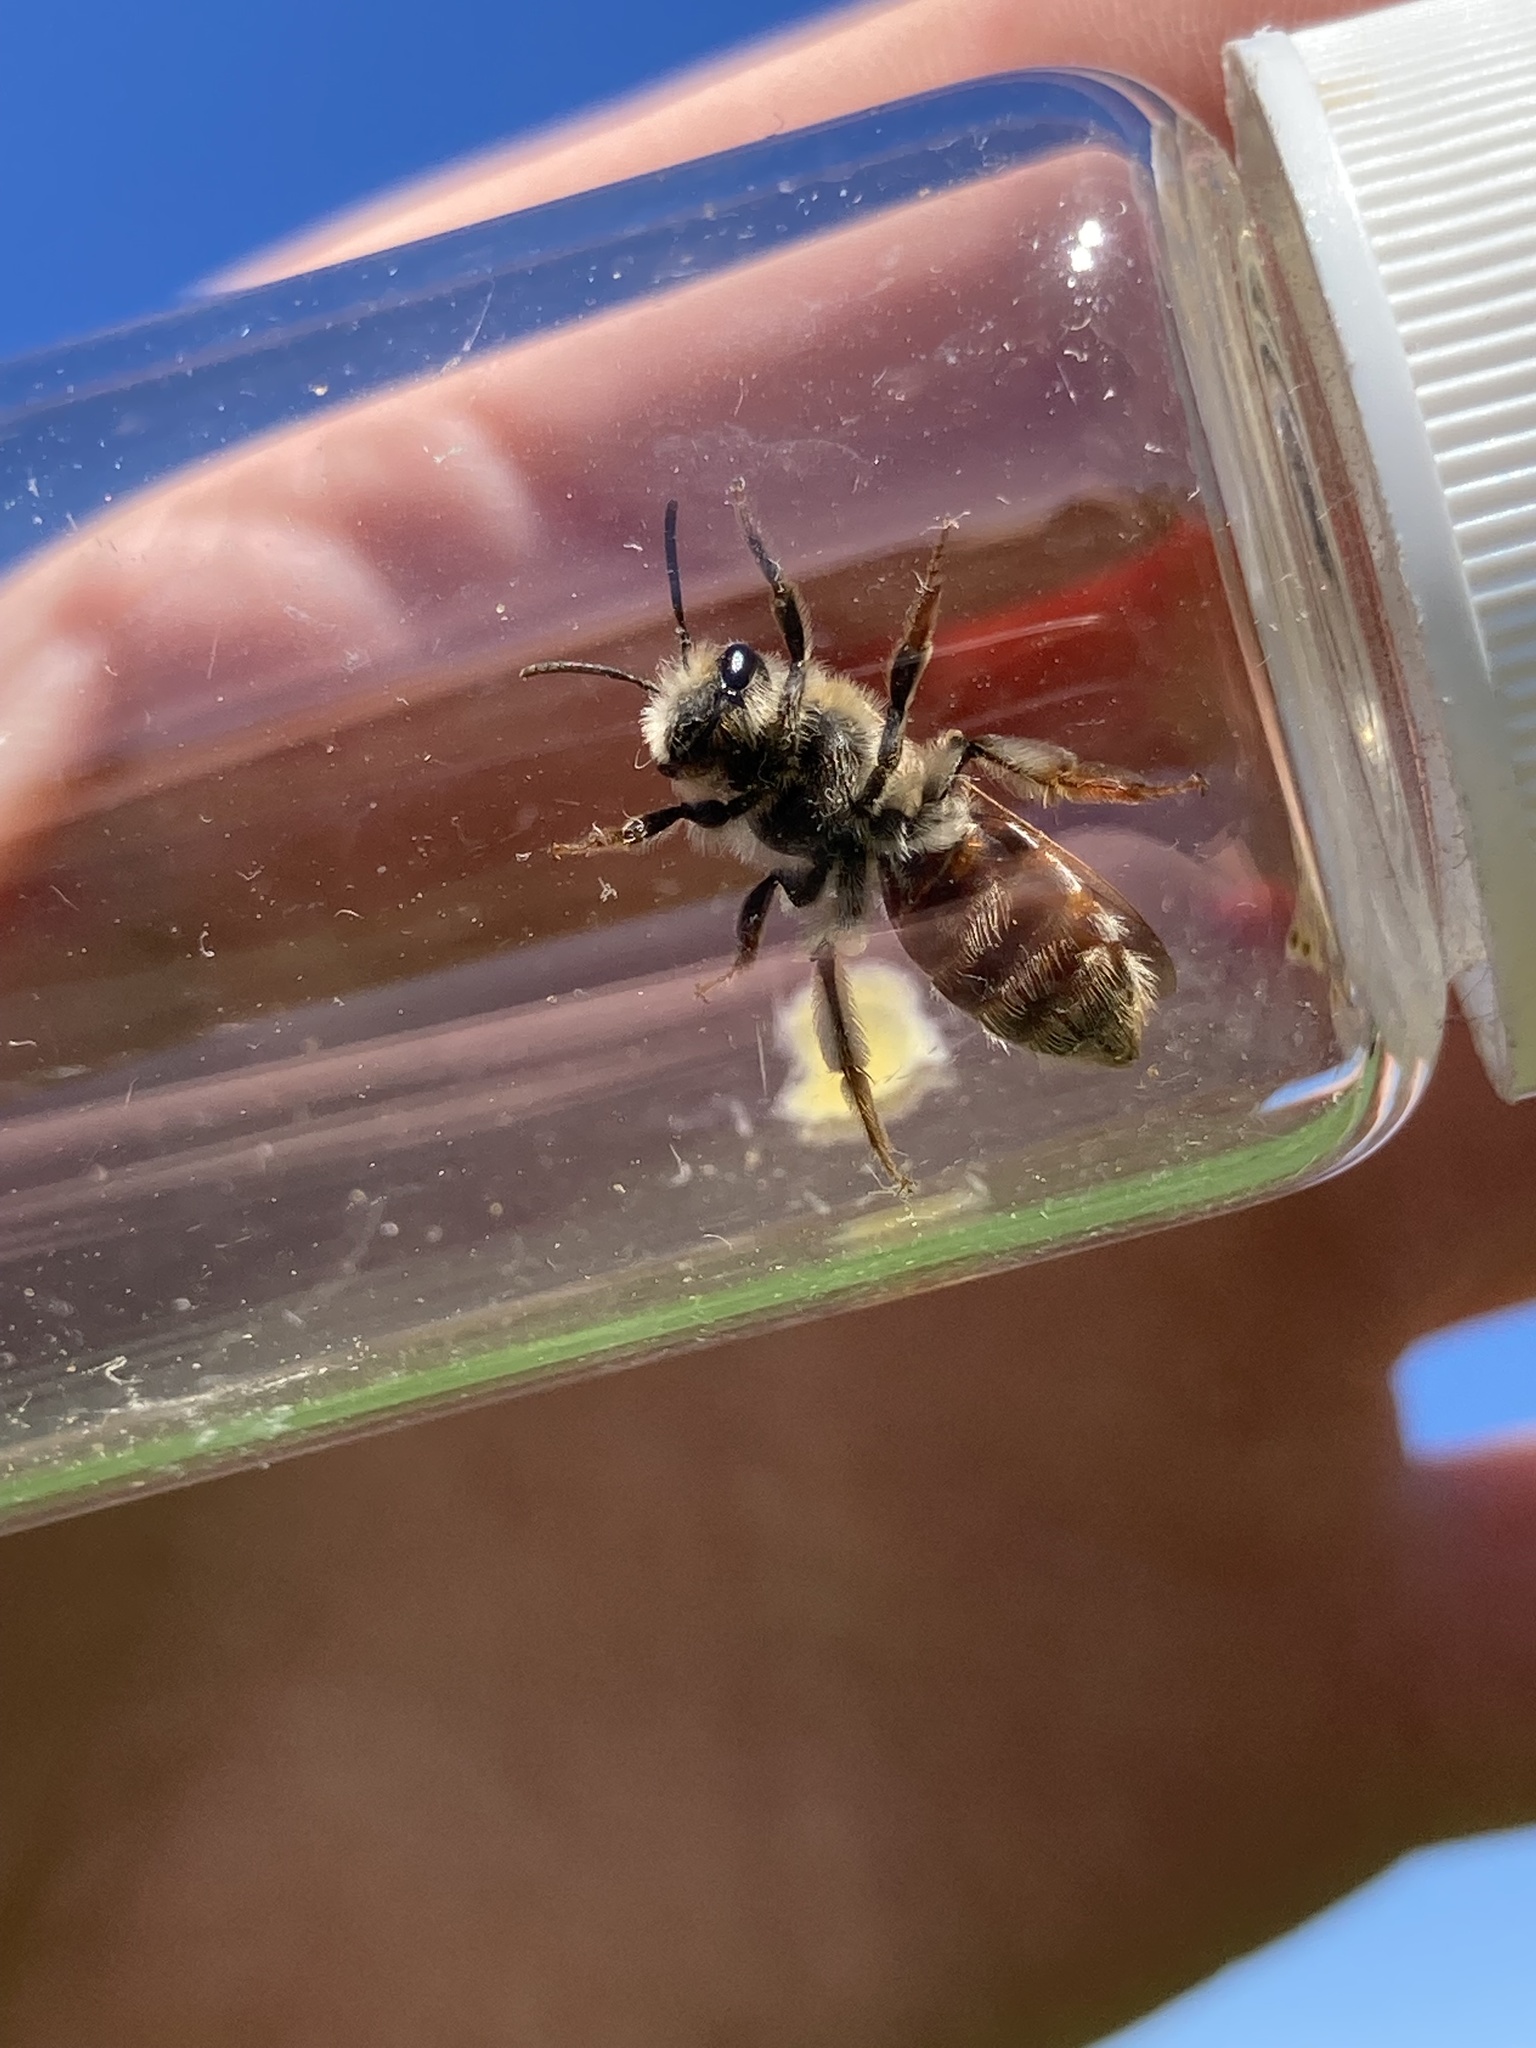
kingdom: Animalia
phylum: Arthropoda
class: Insecta
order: Hymenoptera
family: Andrenidae
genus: Andrena
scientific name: Andrena erythrogaster
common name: Red-tailed mining bee
